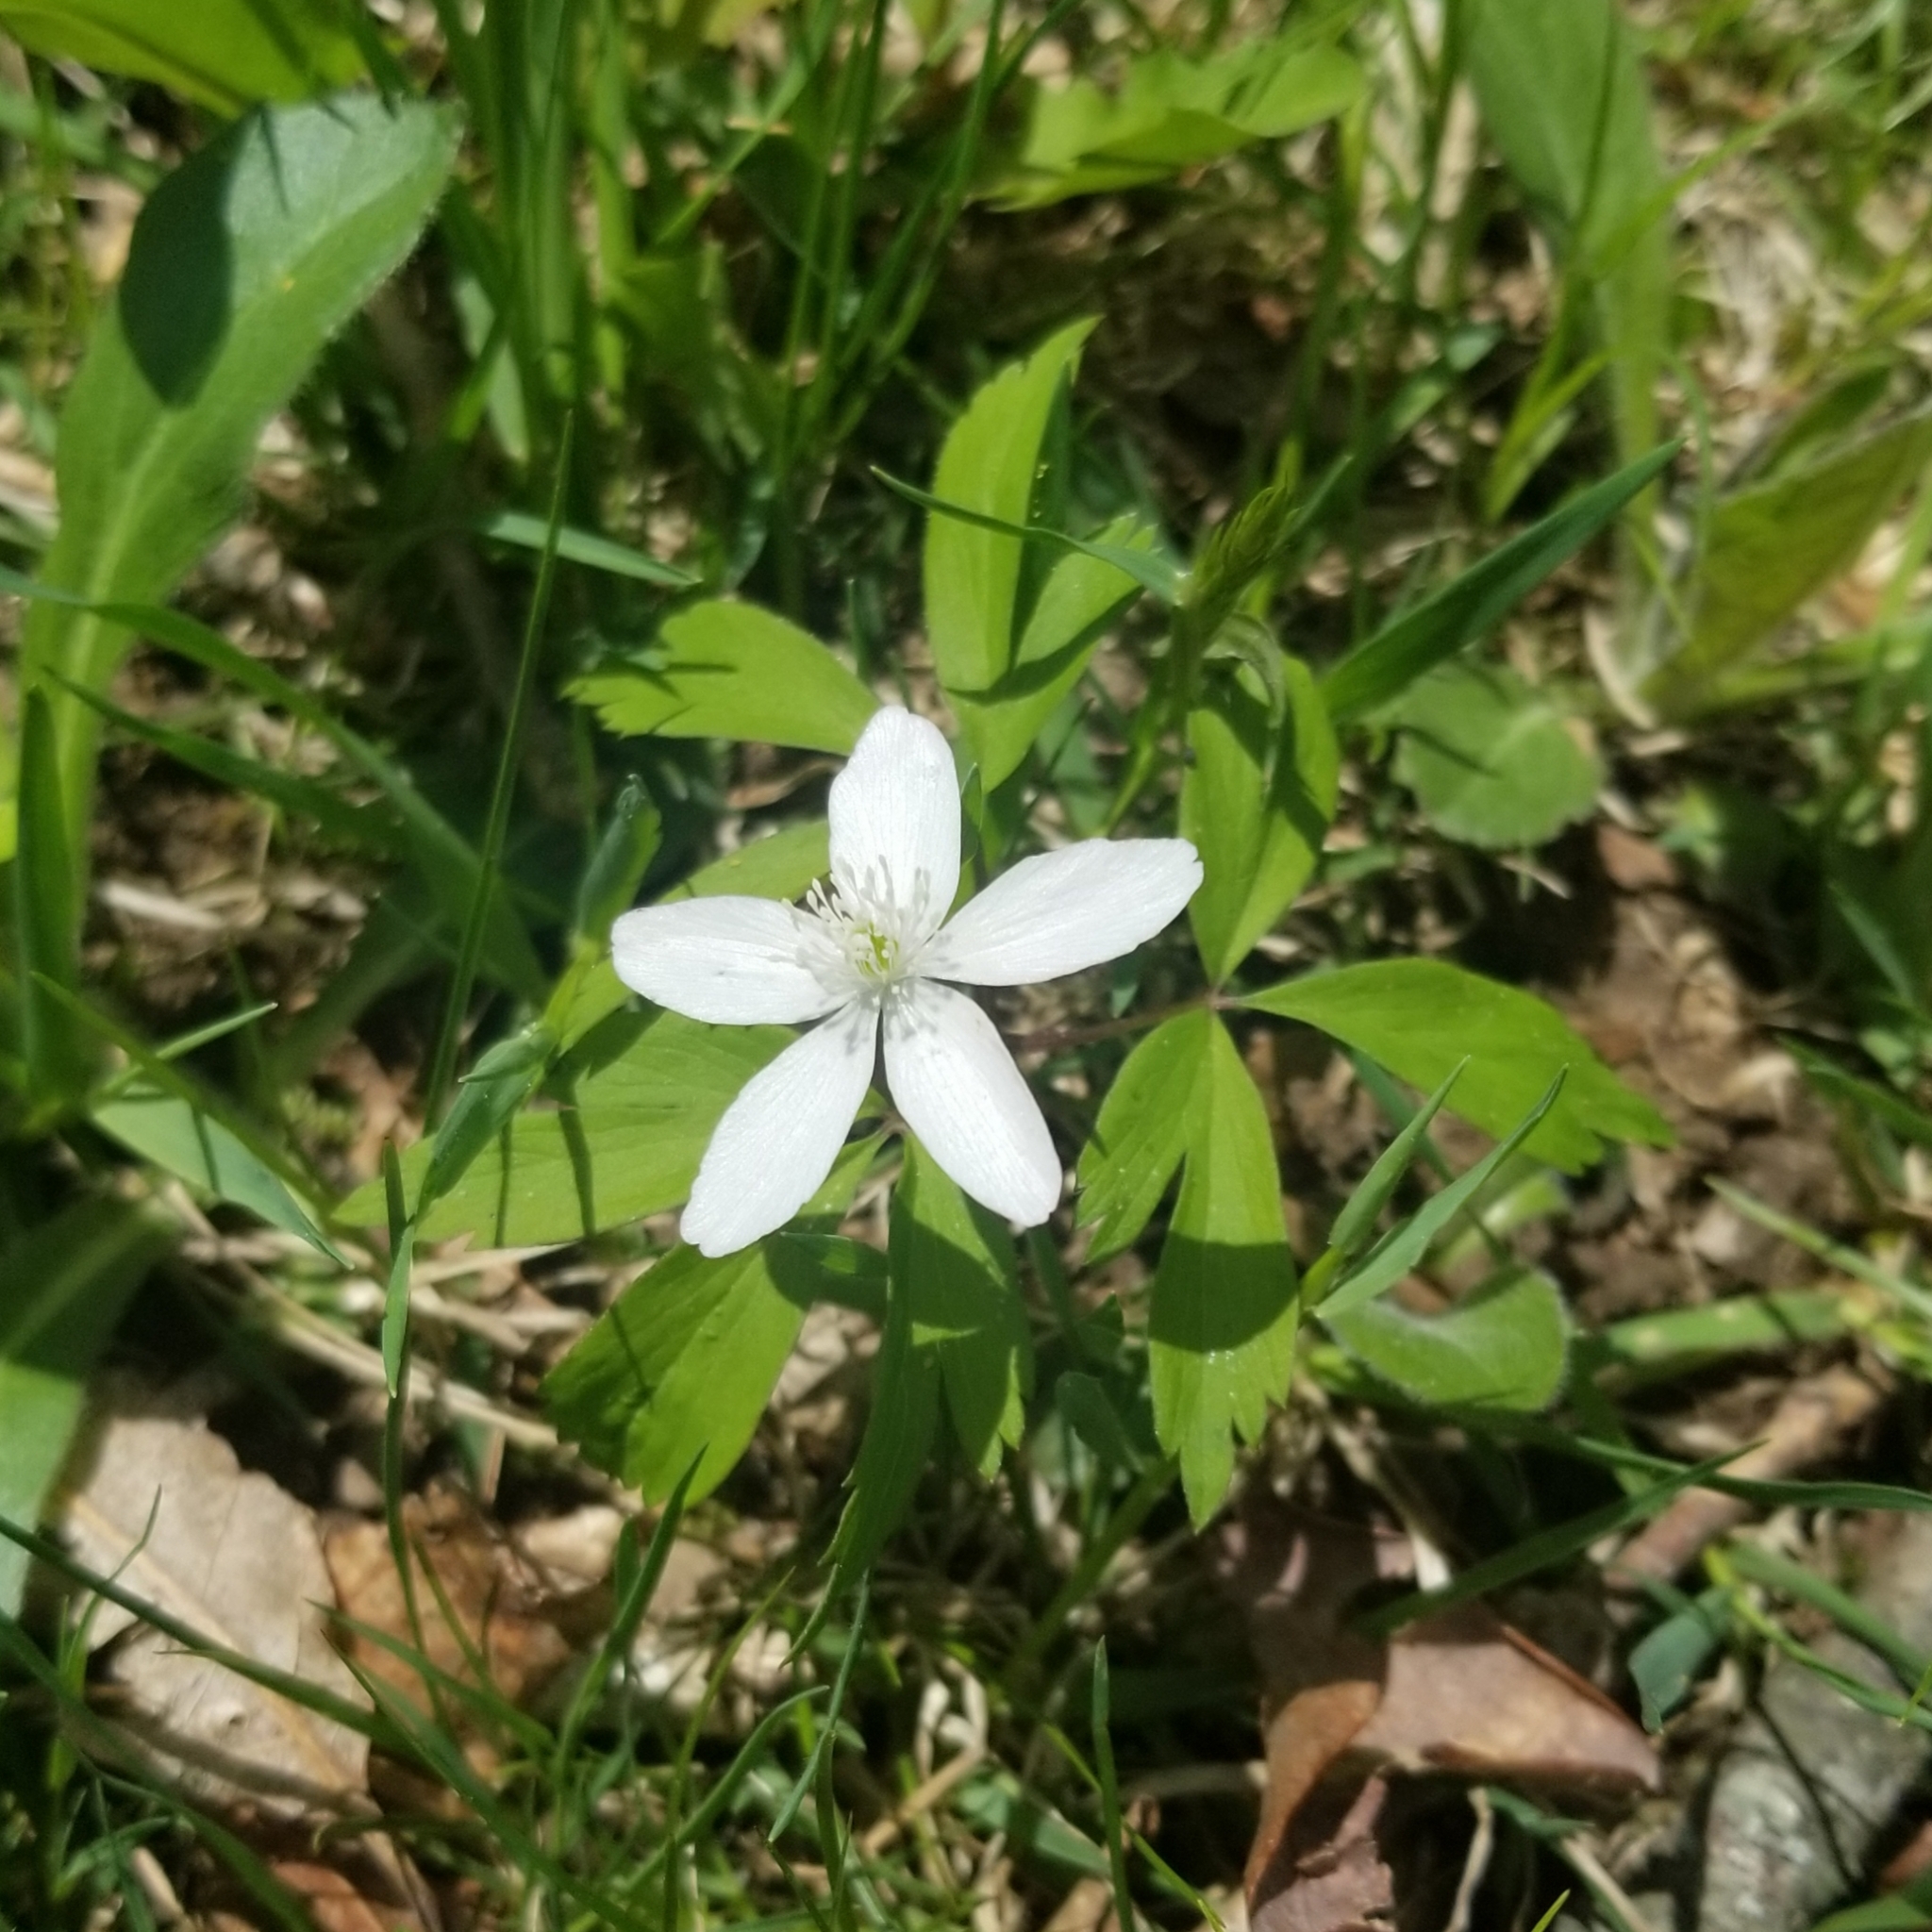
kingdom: Plantae
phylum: Tracheophyta
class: Magnoliopsida
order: Ranunculales
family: Ranunculaceae
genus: Anemone
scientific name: Anemone quinquefolia
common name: Wood anemone
